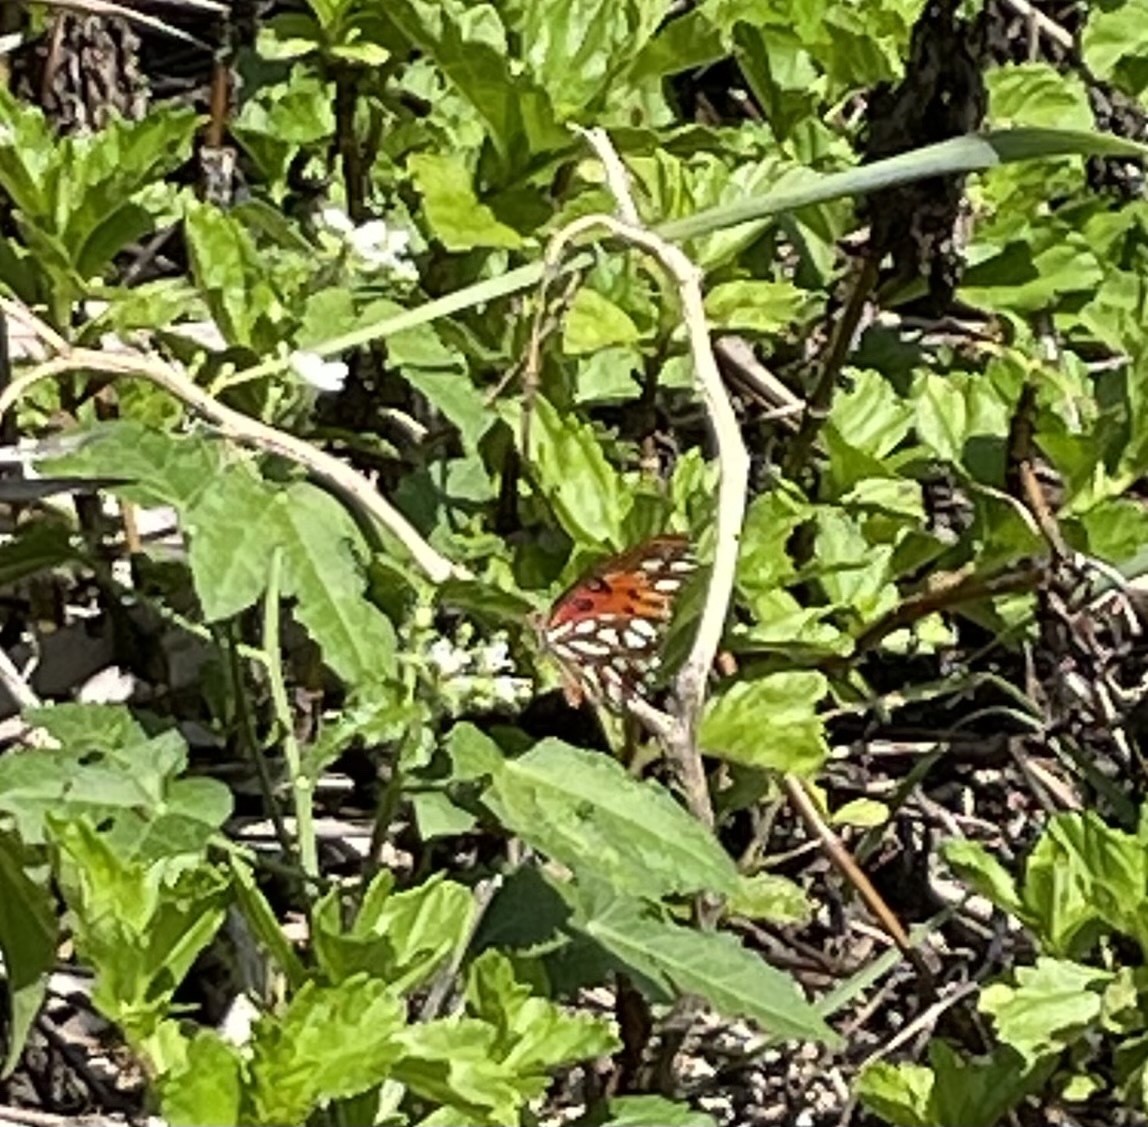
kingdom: Animalia
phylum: Arthropoda
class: Insecta
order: Lepidoptera
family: Nymphalidae
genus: Dione
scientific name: Dione vanillae
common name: Gulf fritillary
